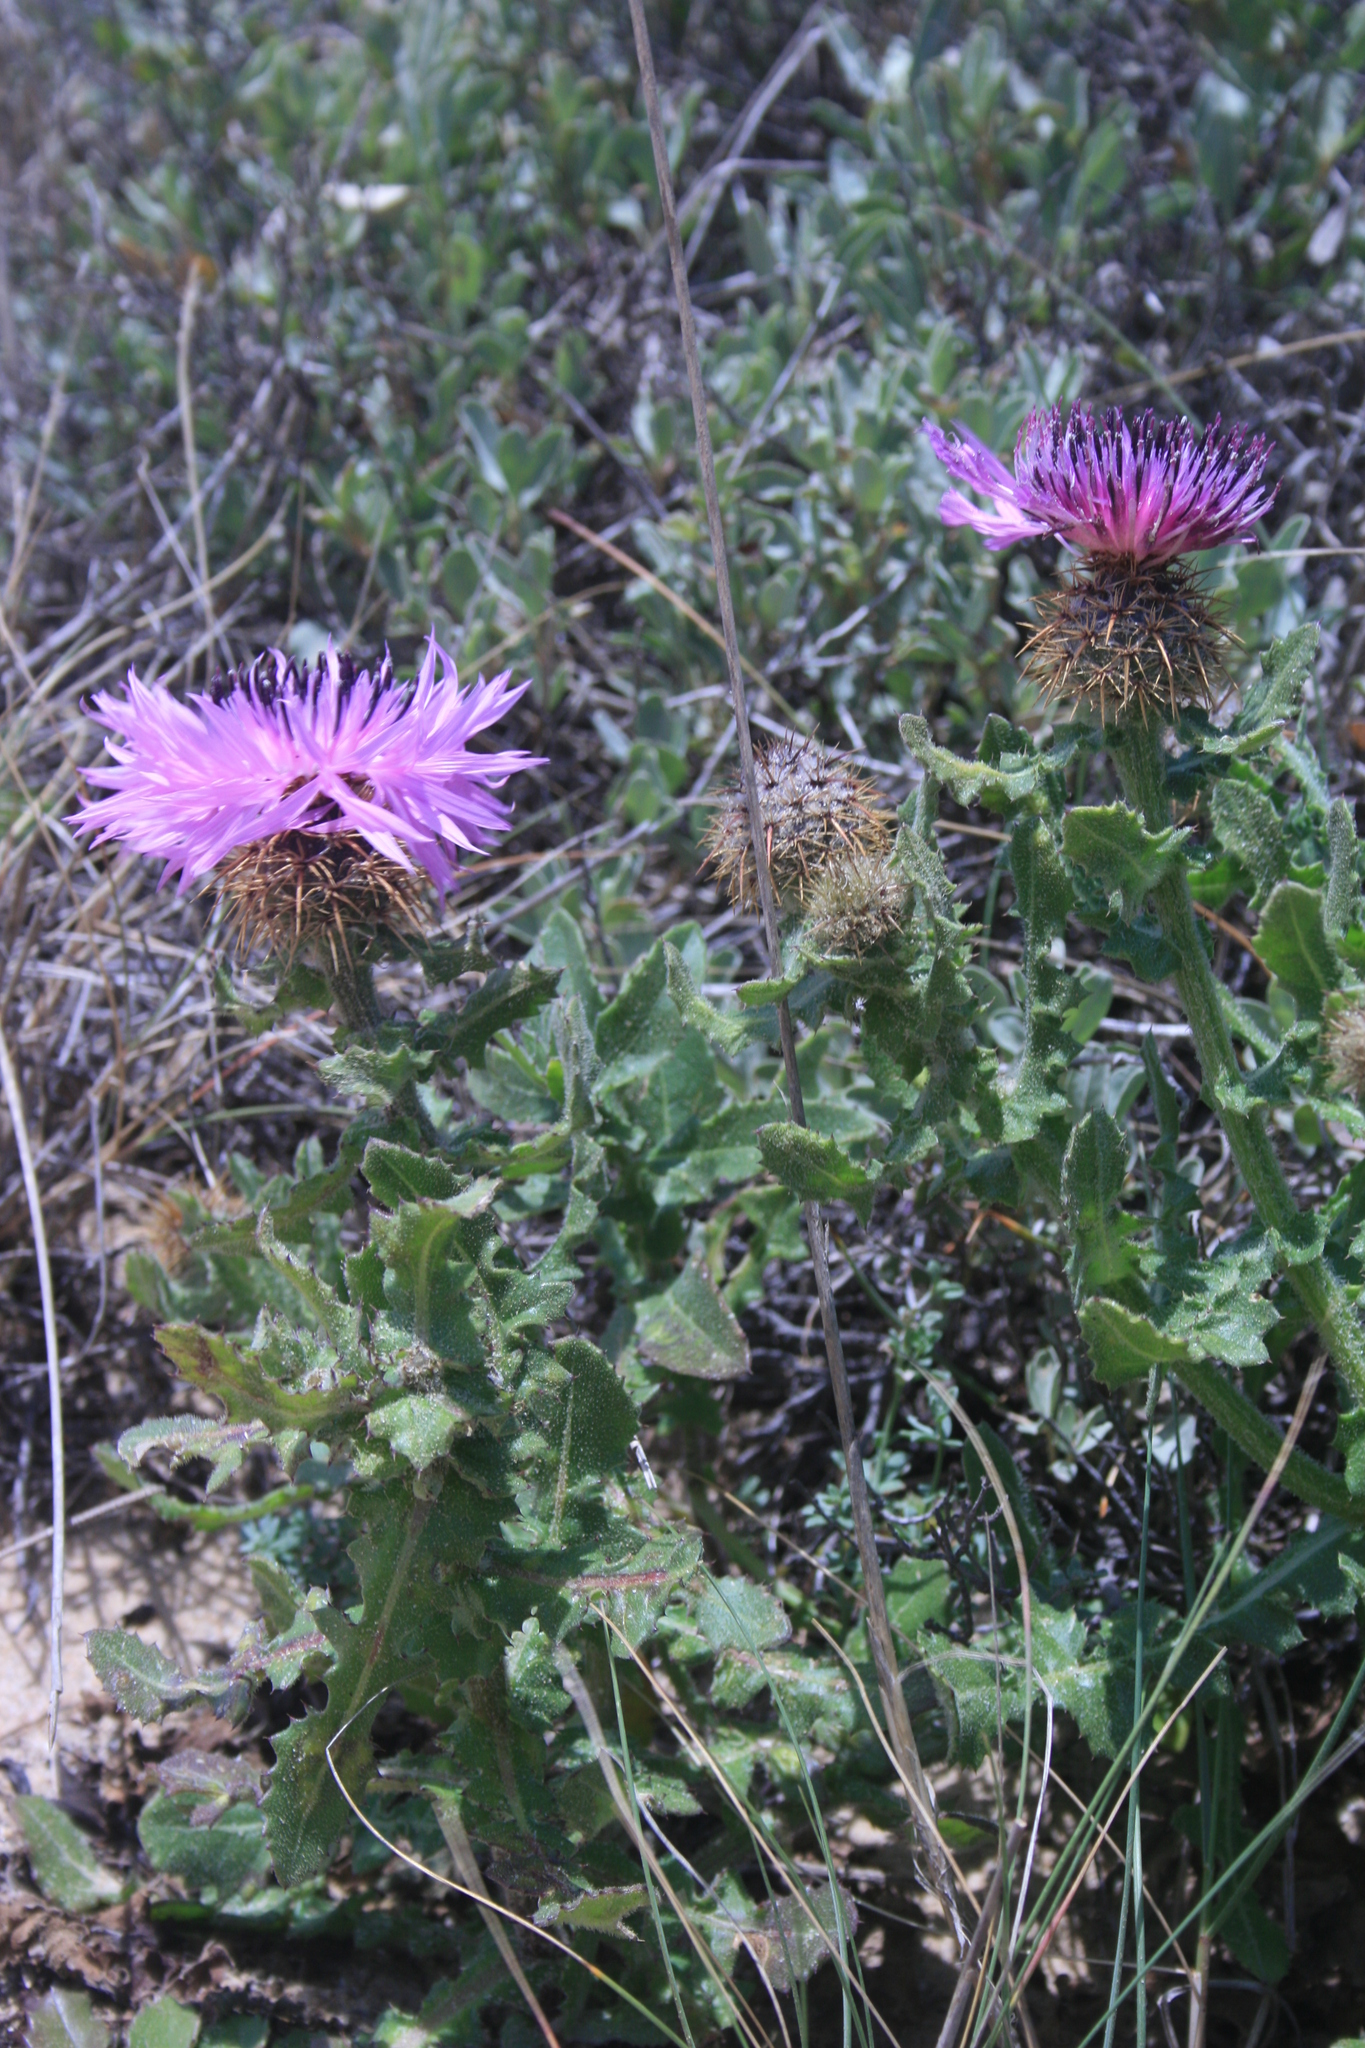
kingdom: Plantae
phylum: Tracheophyta
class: Magnoliopsida
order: Asterales
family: Asteraceae
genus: Centaurea
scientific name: Centaurea polyacantha
